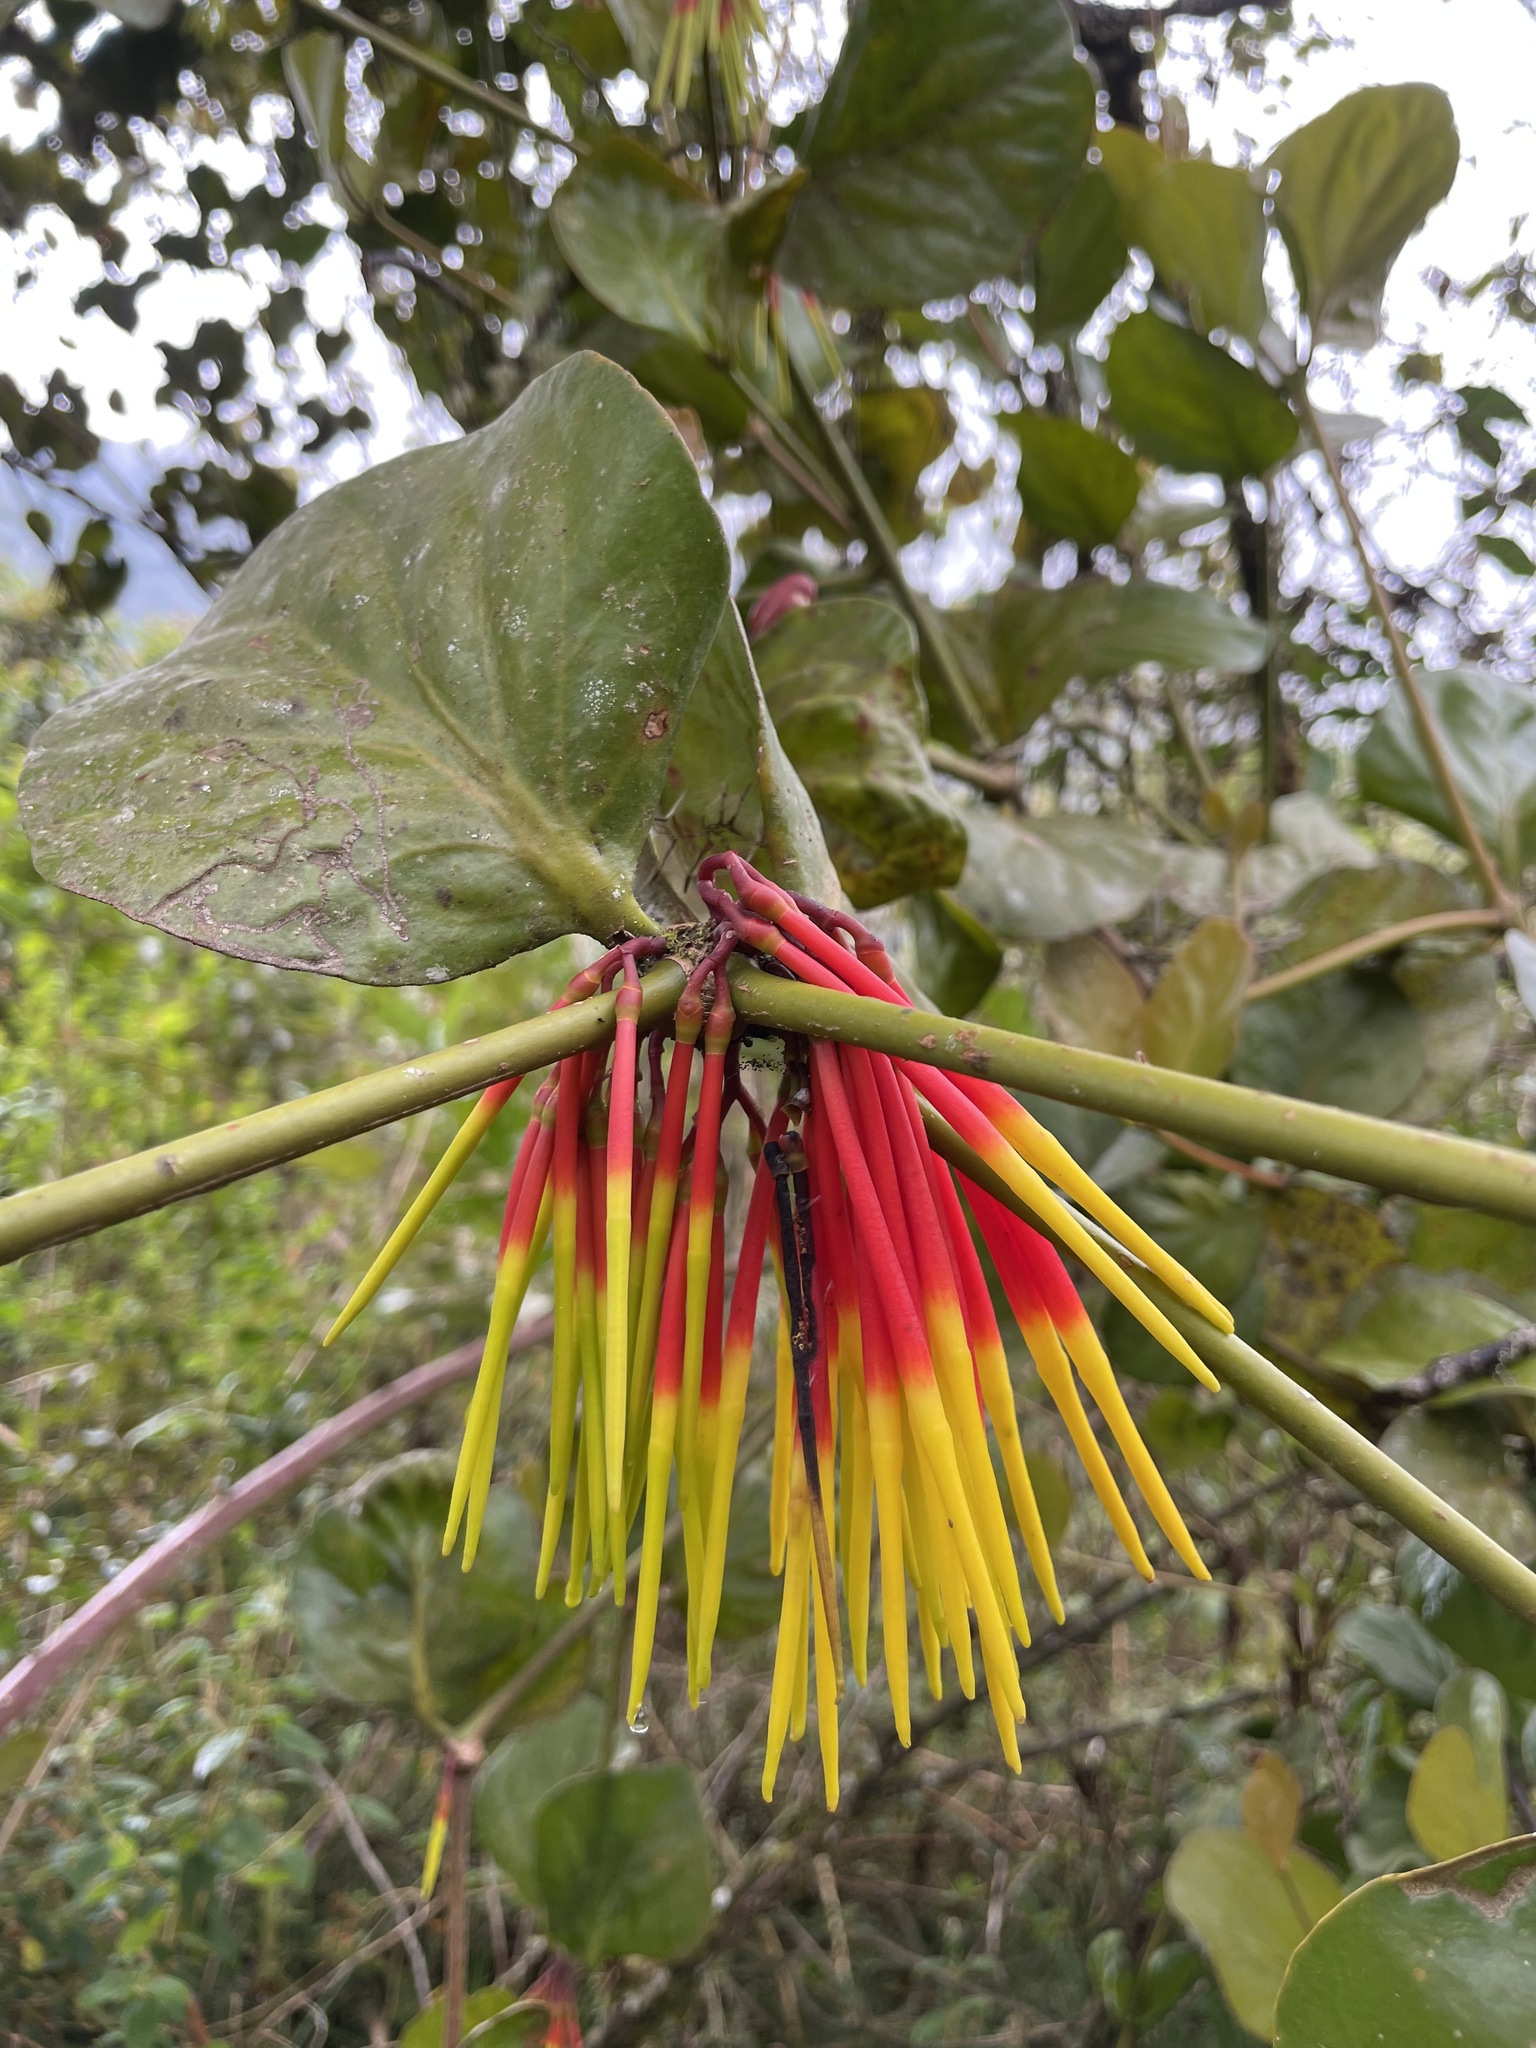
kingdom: Plantae
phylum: Tracheophyta
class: Magnoliopsida
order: Santalales
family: Loranthaceae
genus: Aetanthus
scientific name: Aetanthus nodosus
